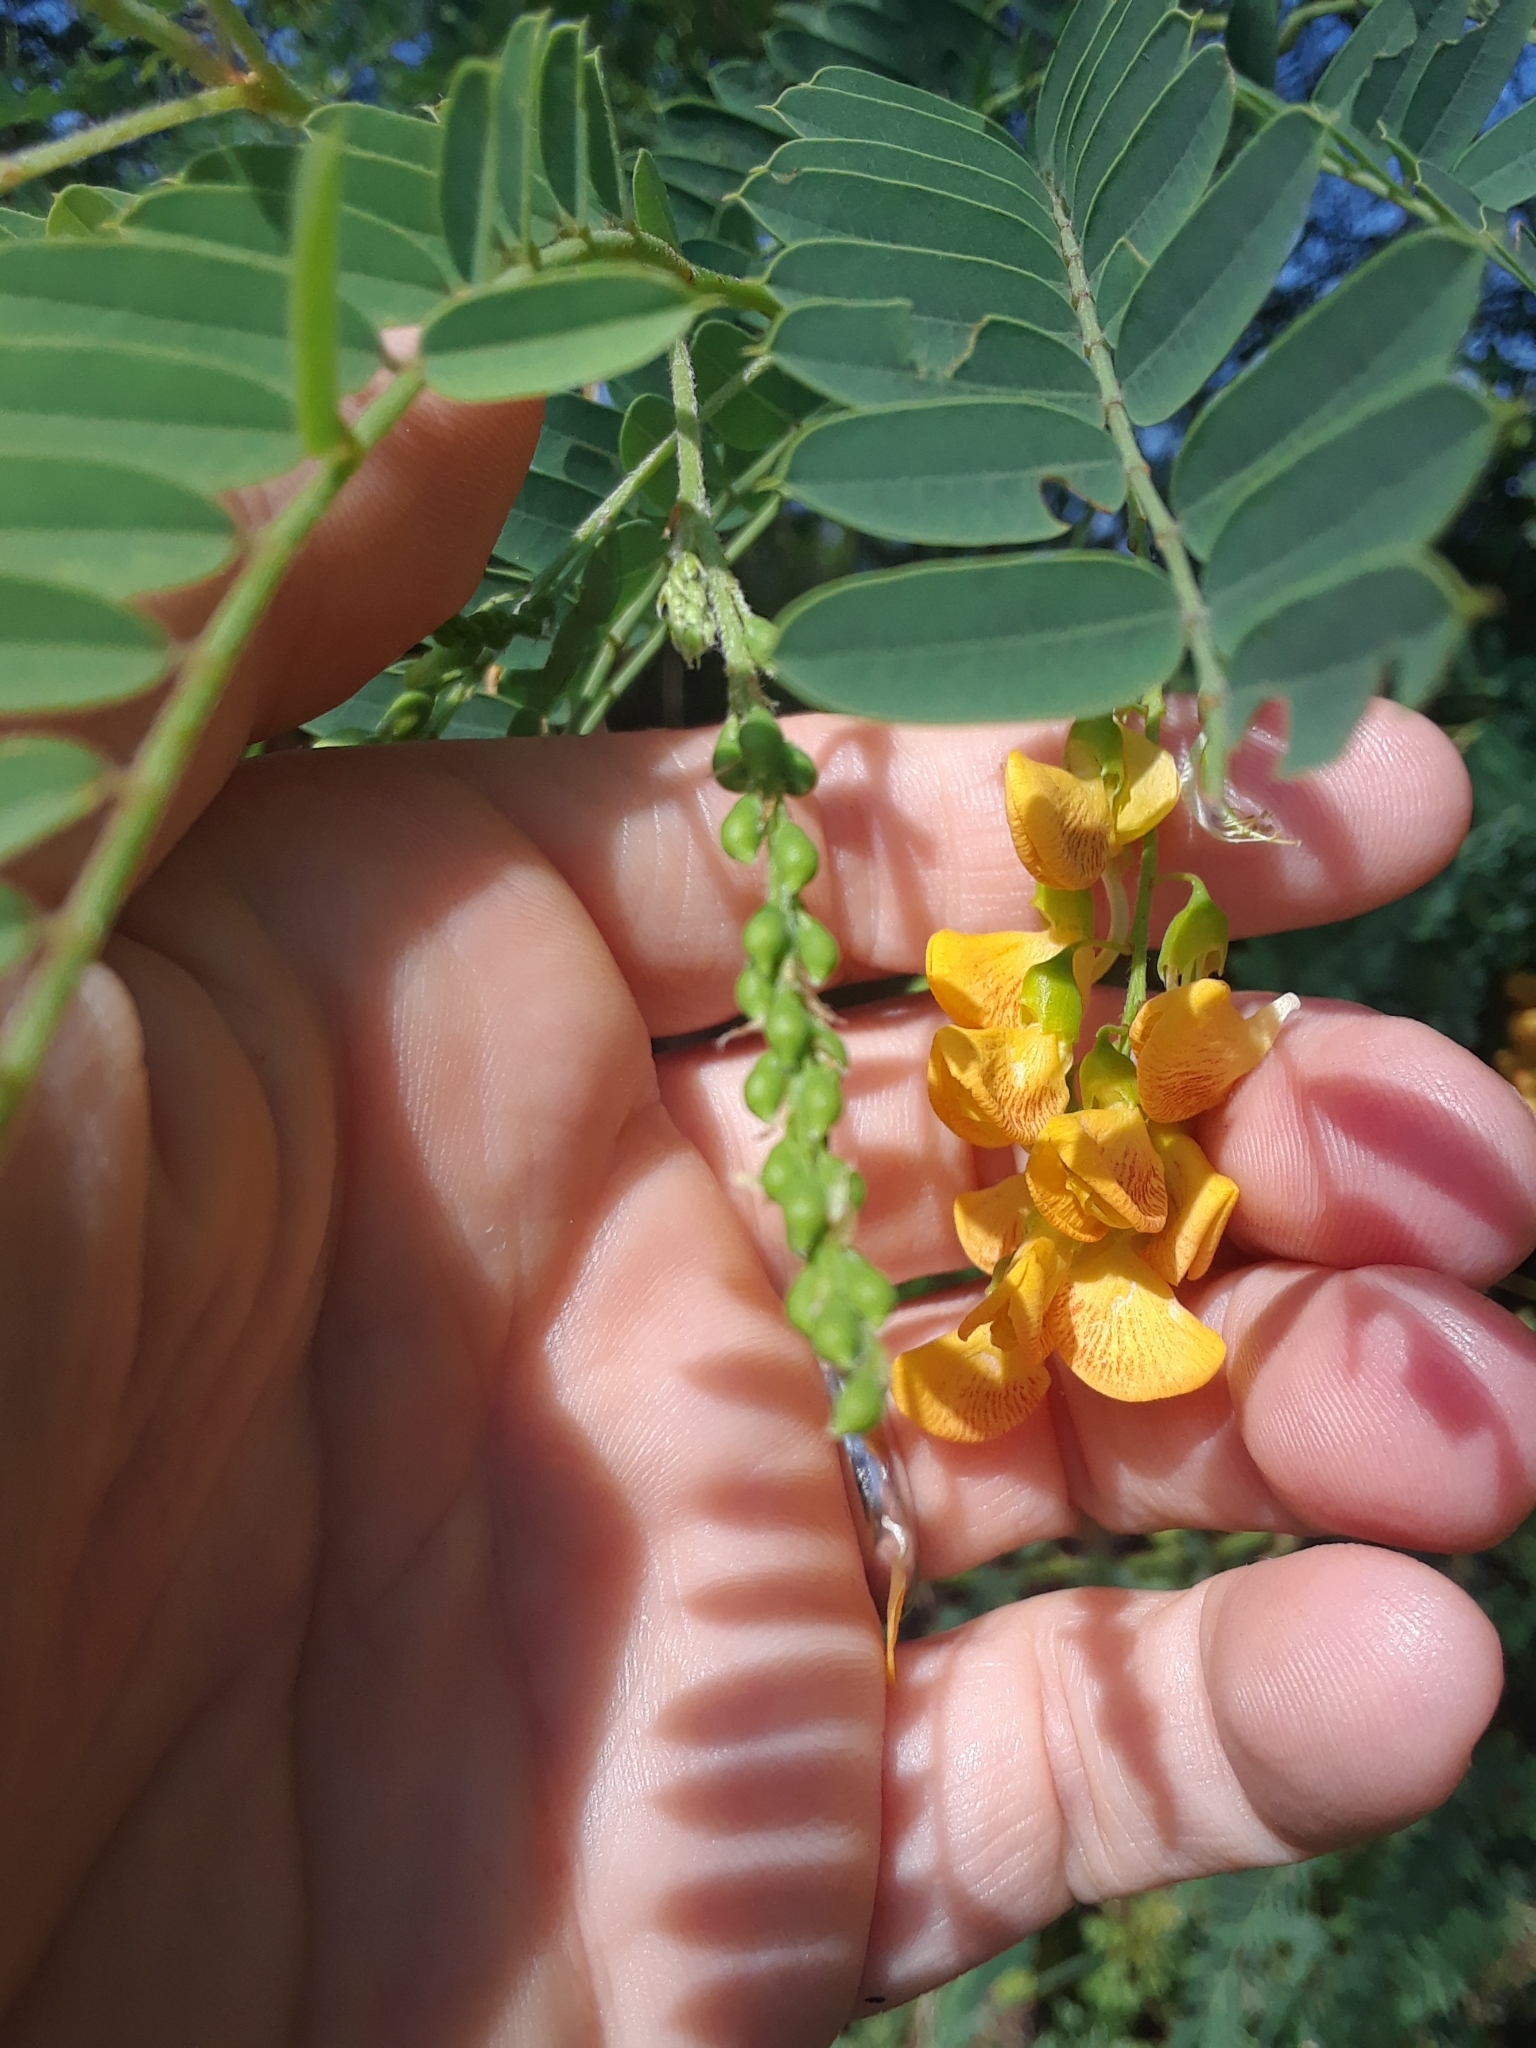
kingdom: Plantae
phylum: Tracheophyta
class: Magnoliopsida
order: Fabales
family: Fabaceae
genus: Sesbania
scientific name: Sesbania drummondii
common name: Poison-bean
